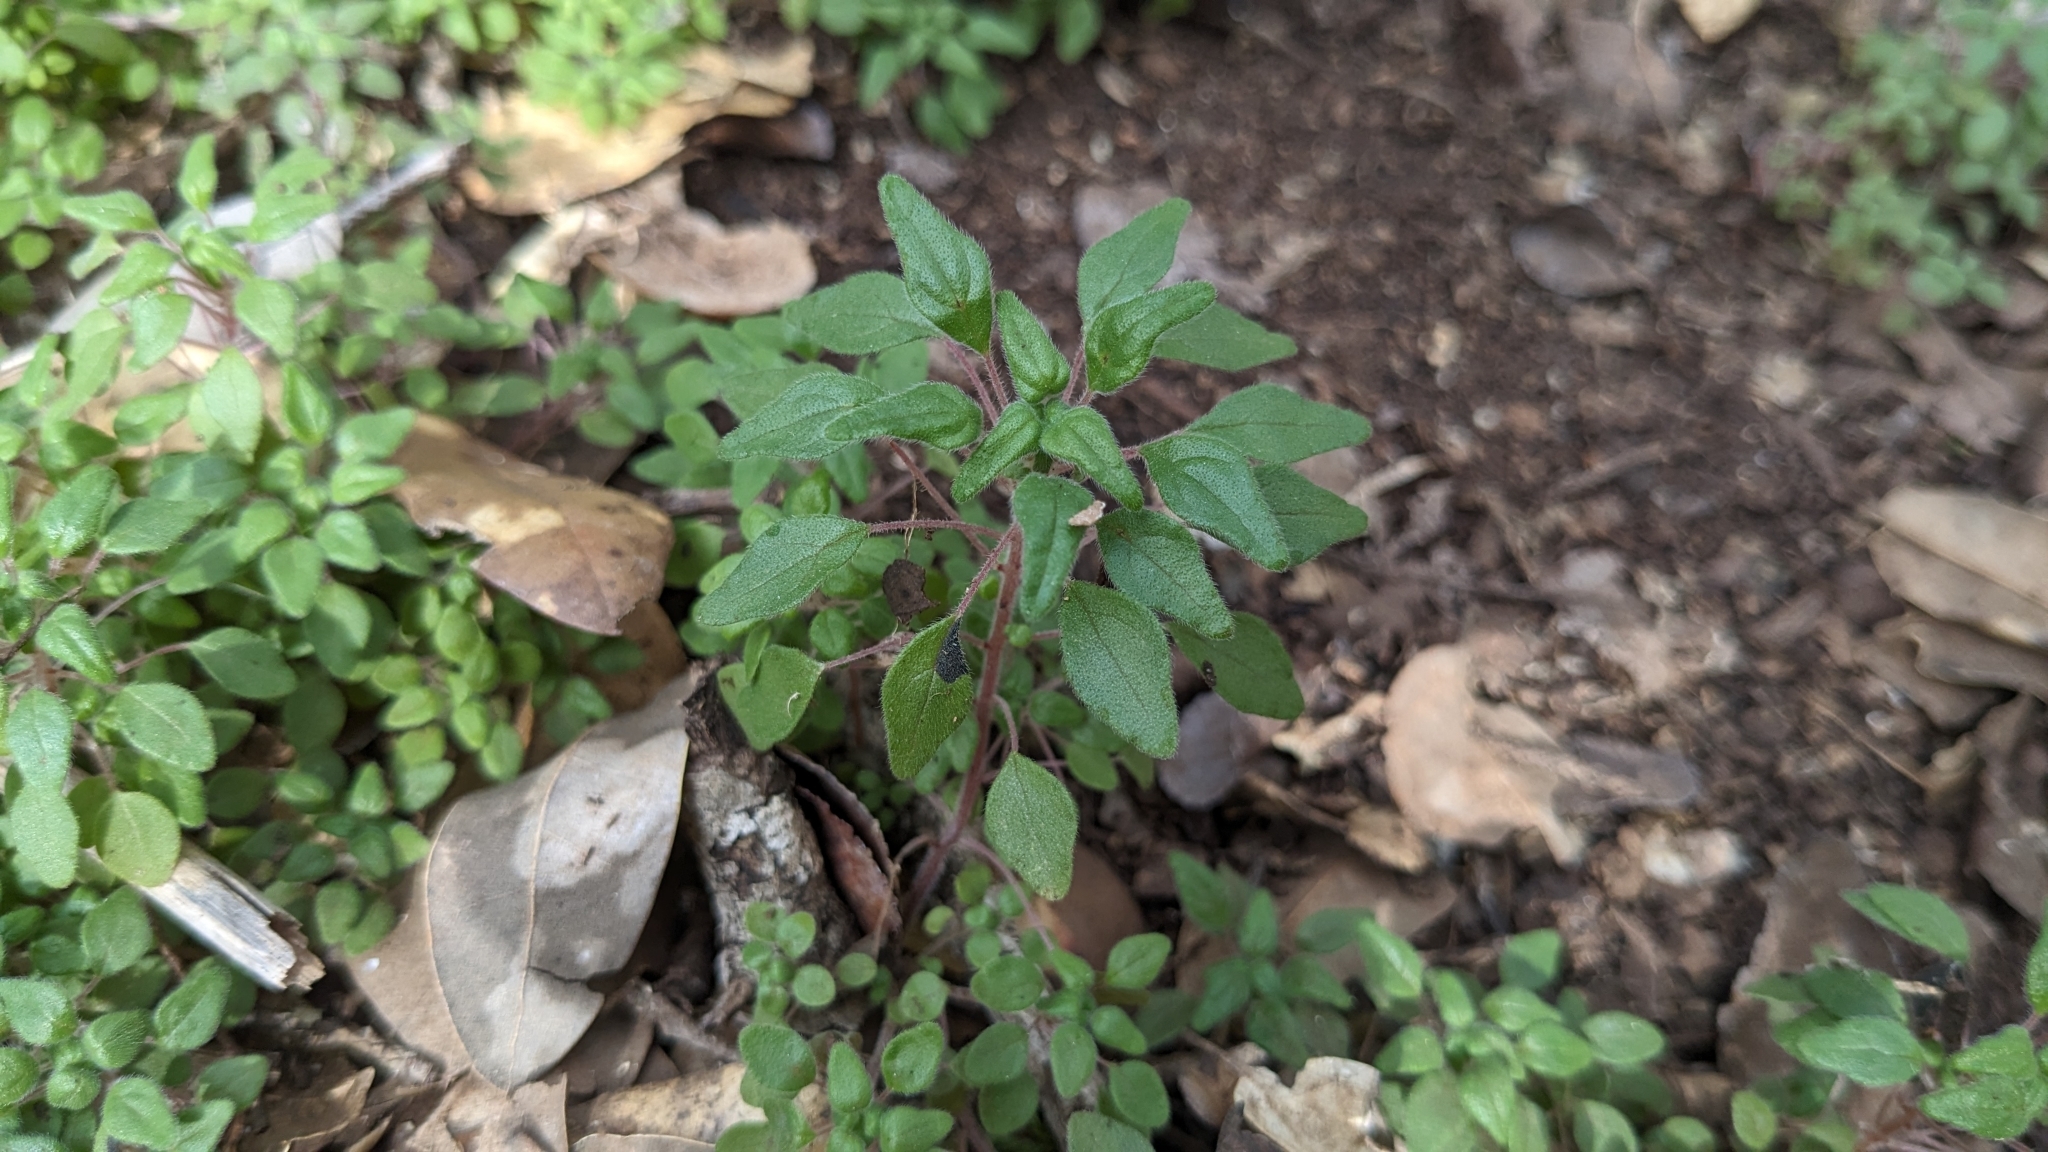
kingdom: Plantae
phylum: Tracheophyta
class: Magnoliopsida
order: Rosales
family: Urticaceae
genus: Parietaria
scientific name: Parietaria pensylvanica
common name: Pennsylvania pellitory
